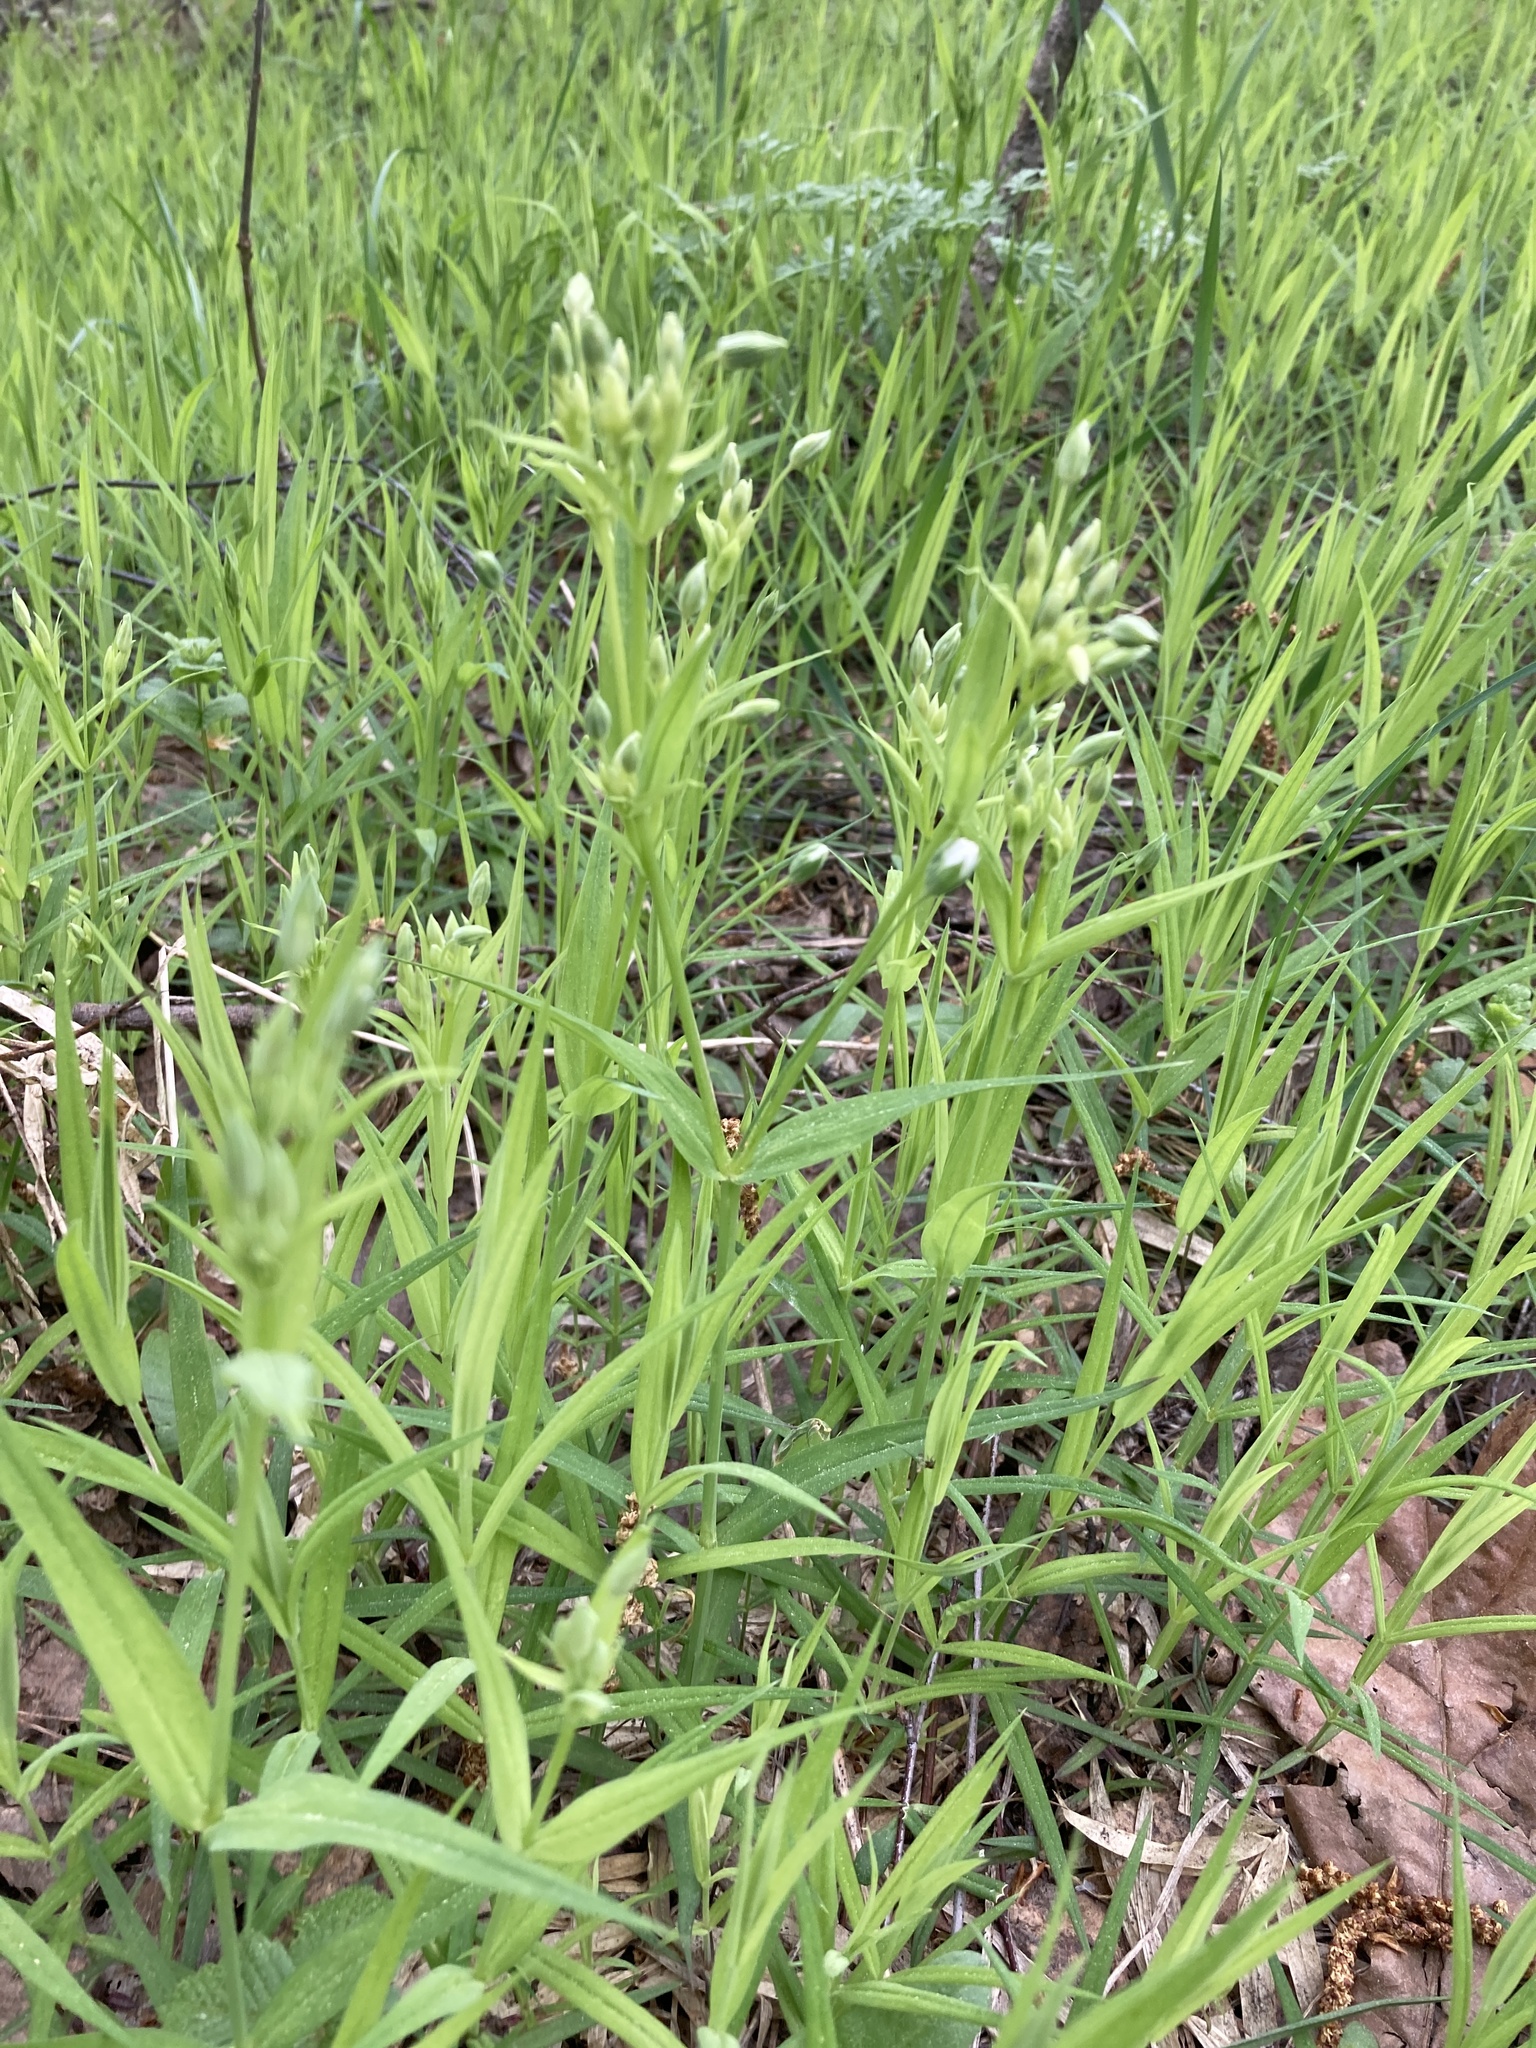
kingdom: Plantae
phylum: Tracheophyta
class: Magnoliopsida
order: Caryophyllales
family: Caryophyllaceae
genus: Rabelera
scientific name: Rabelera holostea
